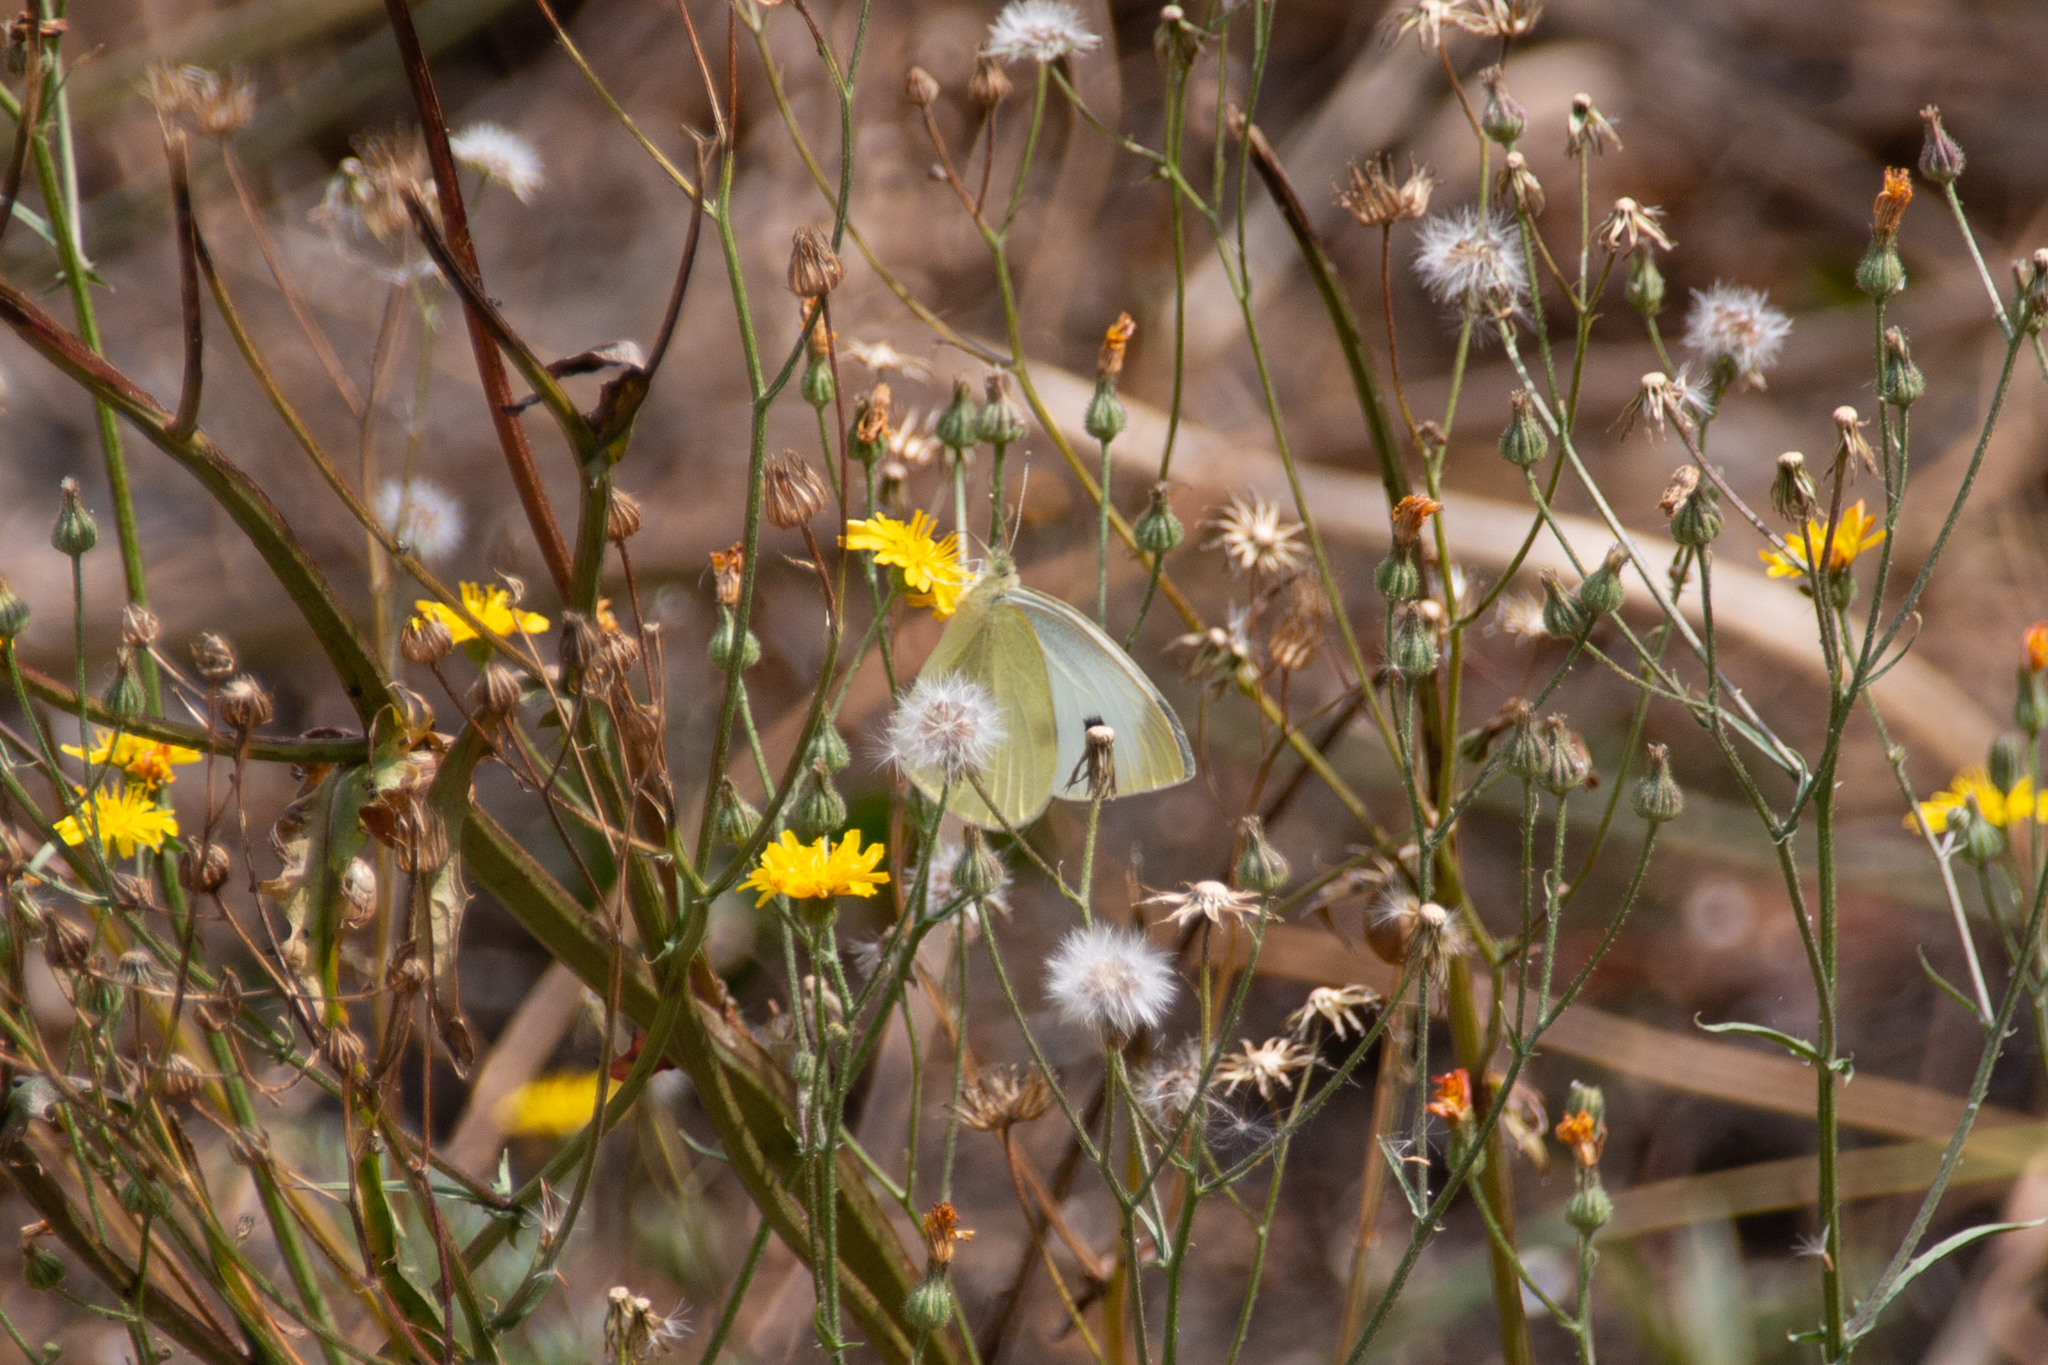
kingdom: Animalia
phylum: Arthropoda
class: Insecta
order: Lepidoptera
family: Pieridae
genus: Pieris
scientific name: Pieris rapae
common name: Small white
